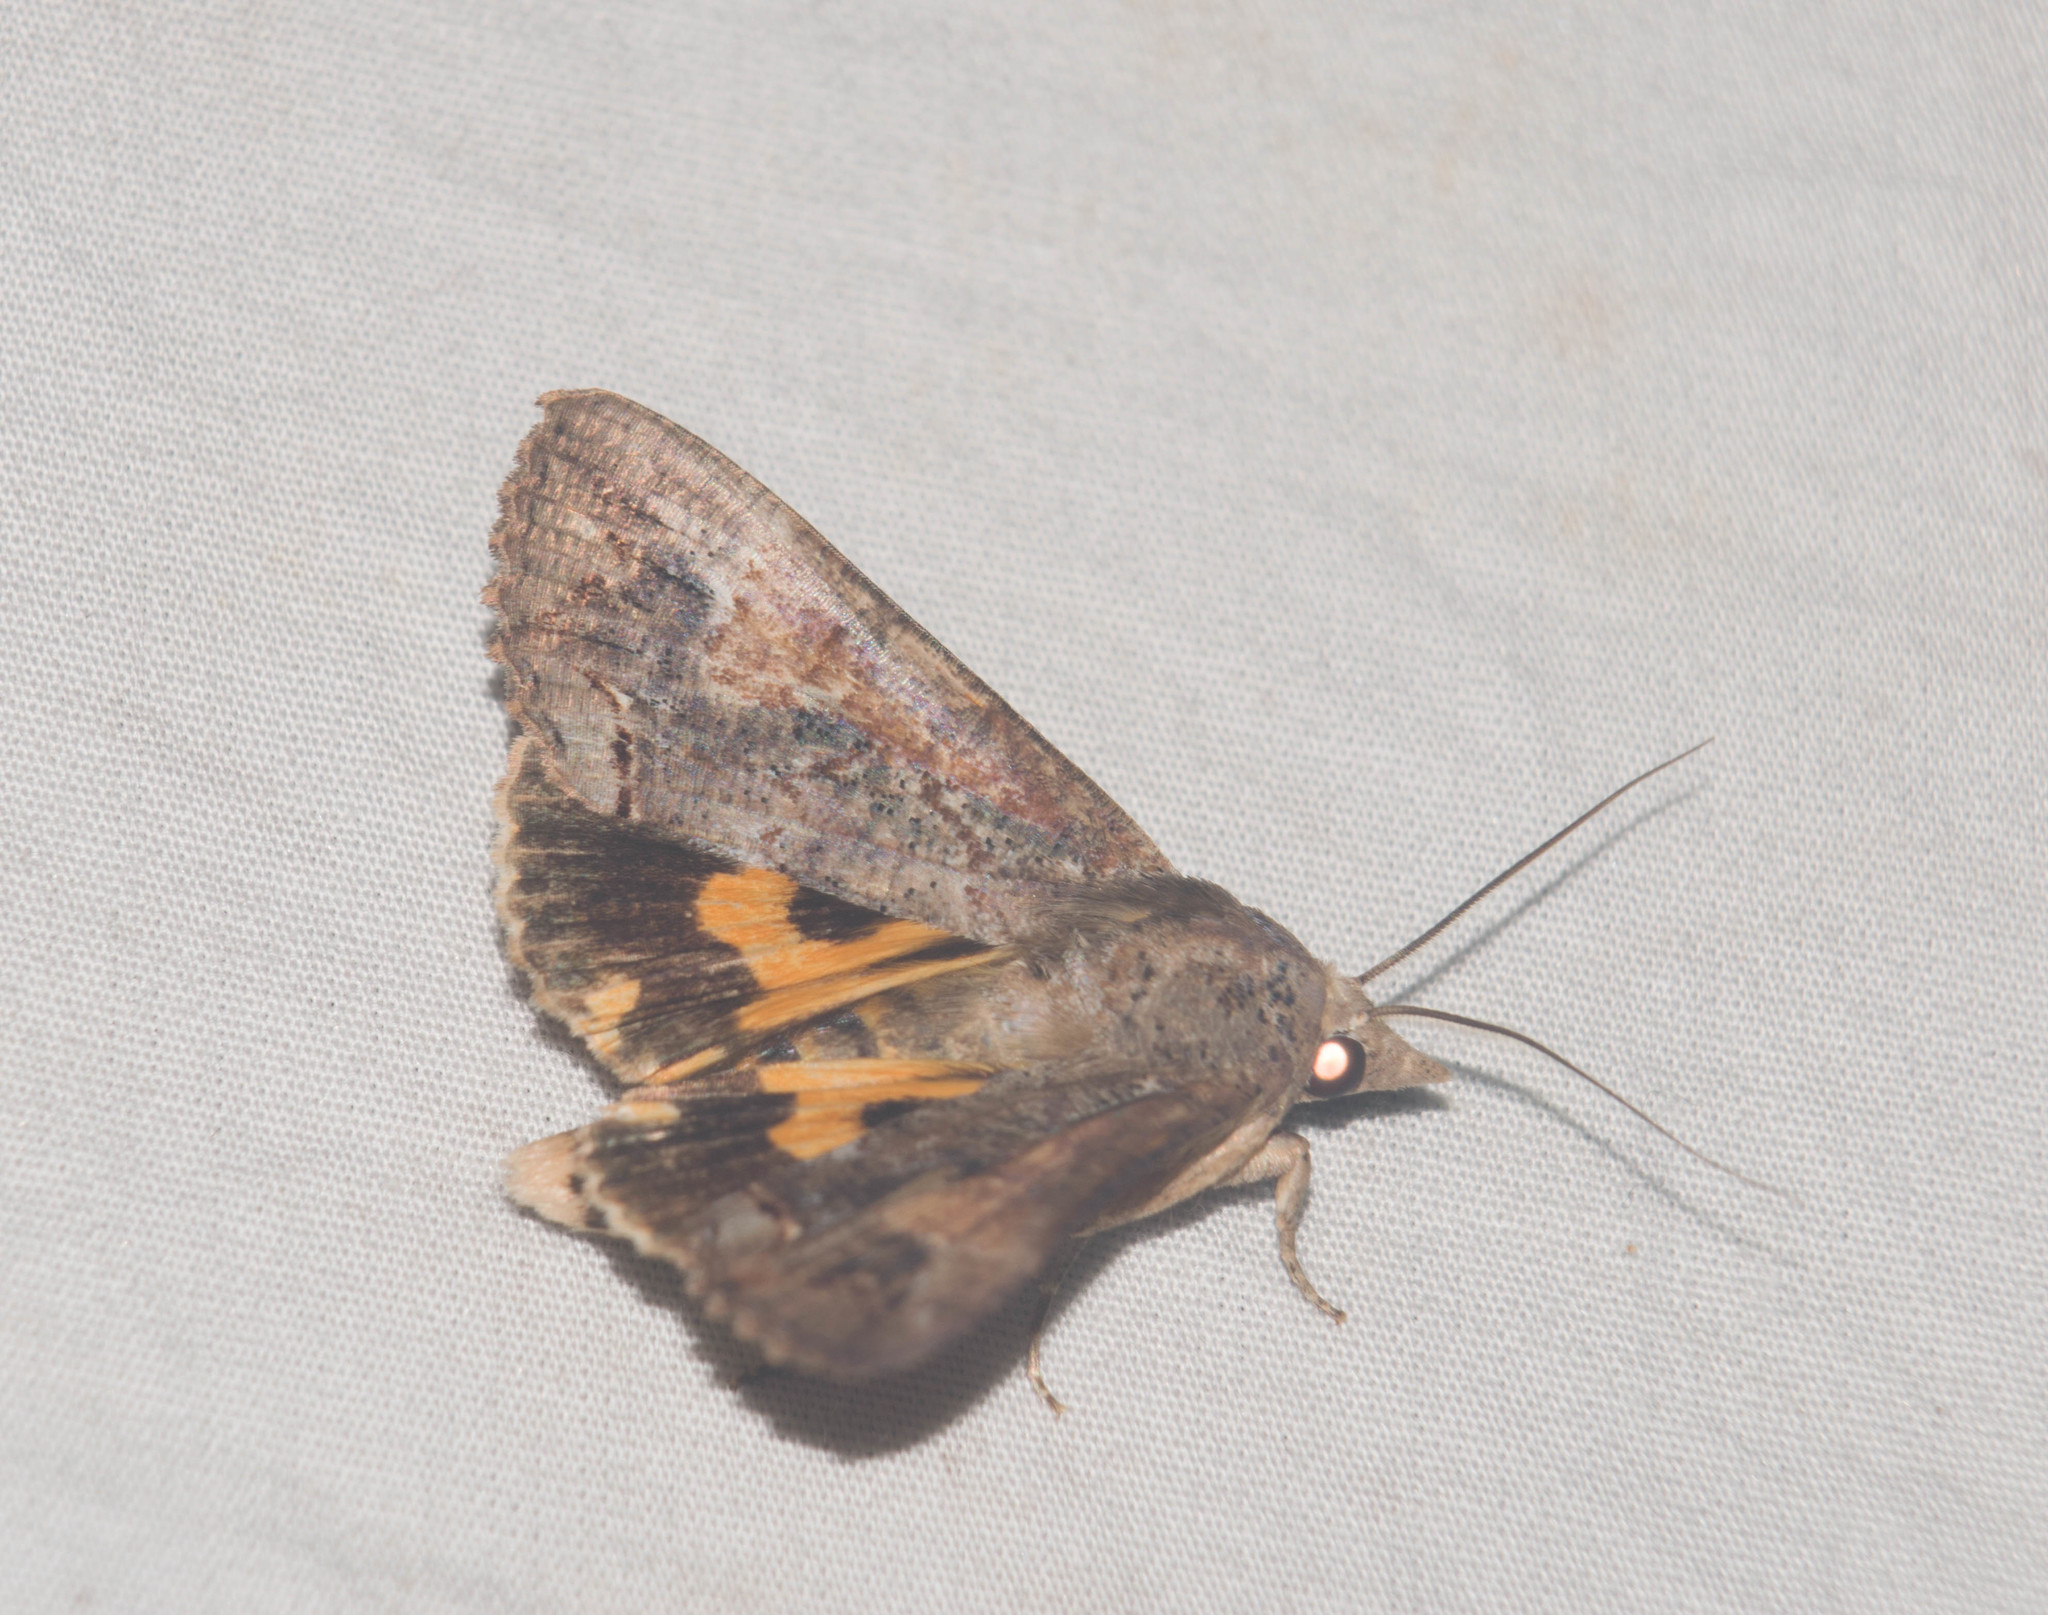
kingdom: Animalia
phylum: Arthropoda
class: Insecta
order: Lepidoptera
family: Erebidae
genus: Hypocala
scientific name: Hypocala deflorata
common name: Moth
